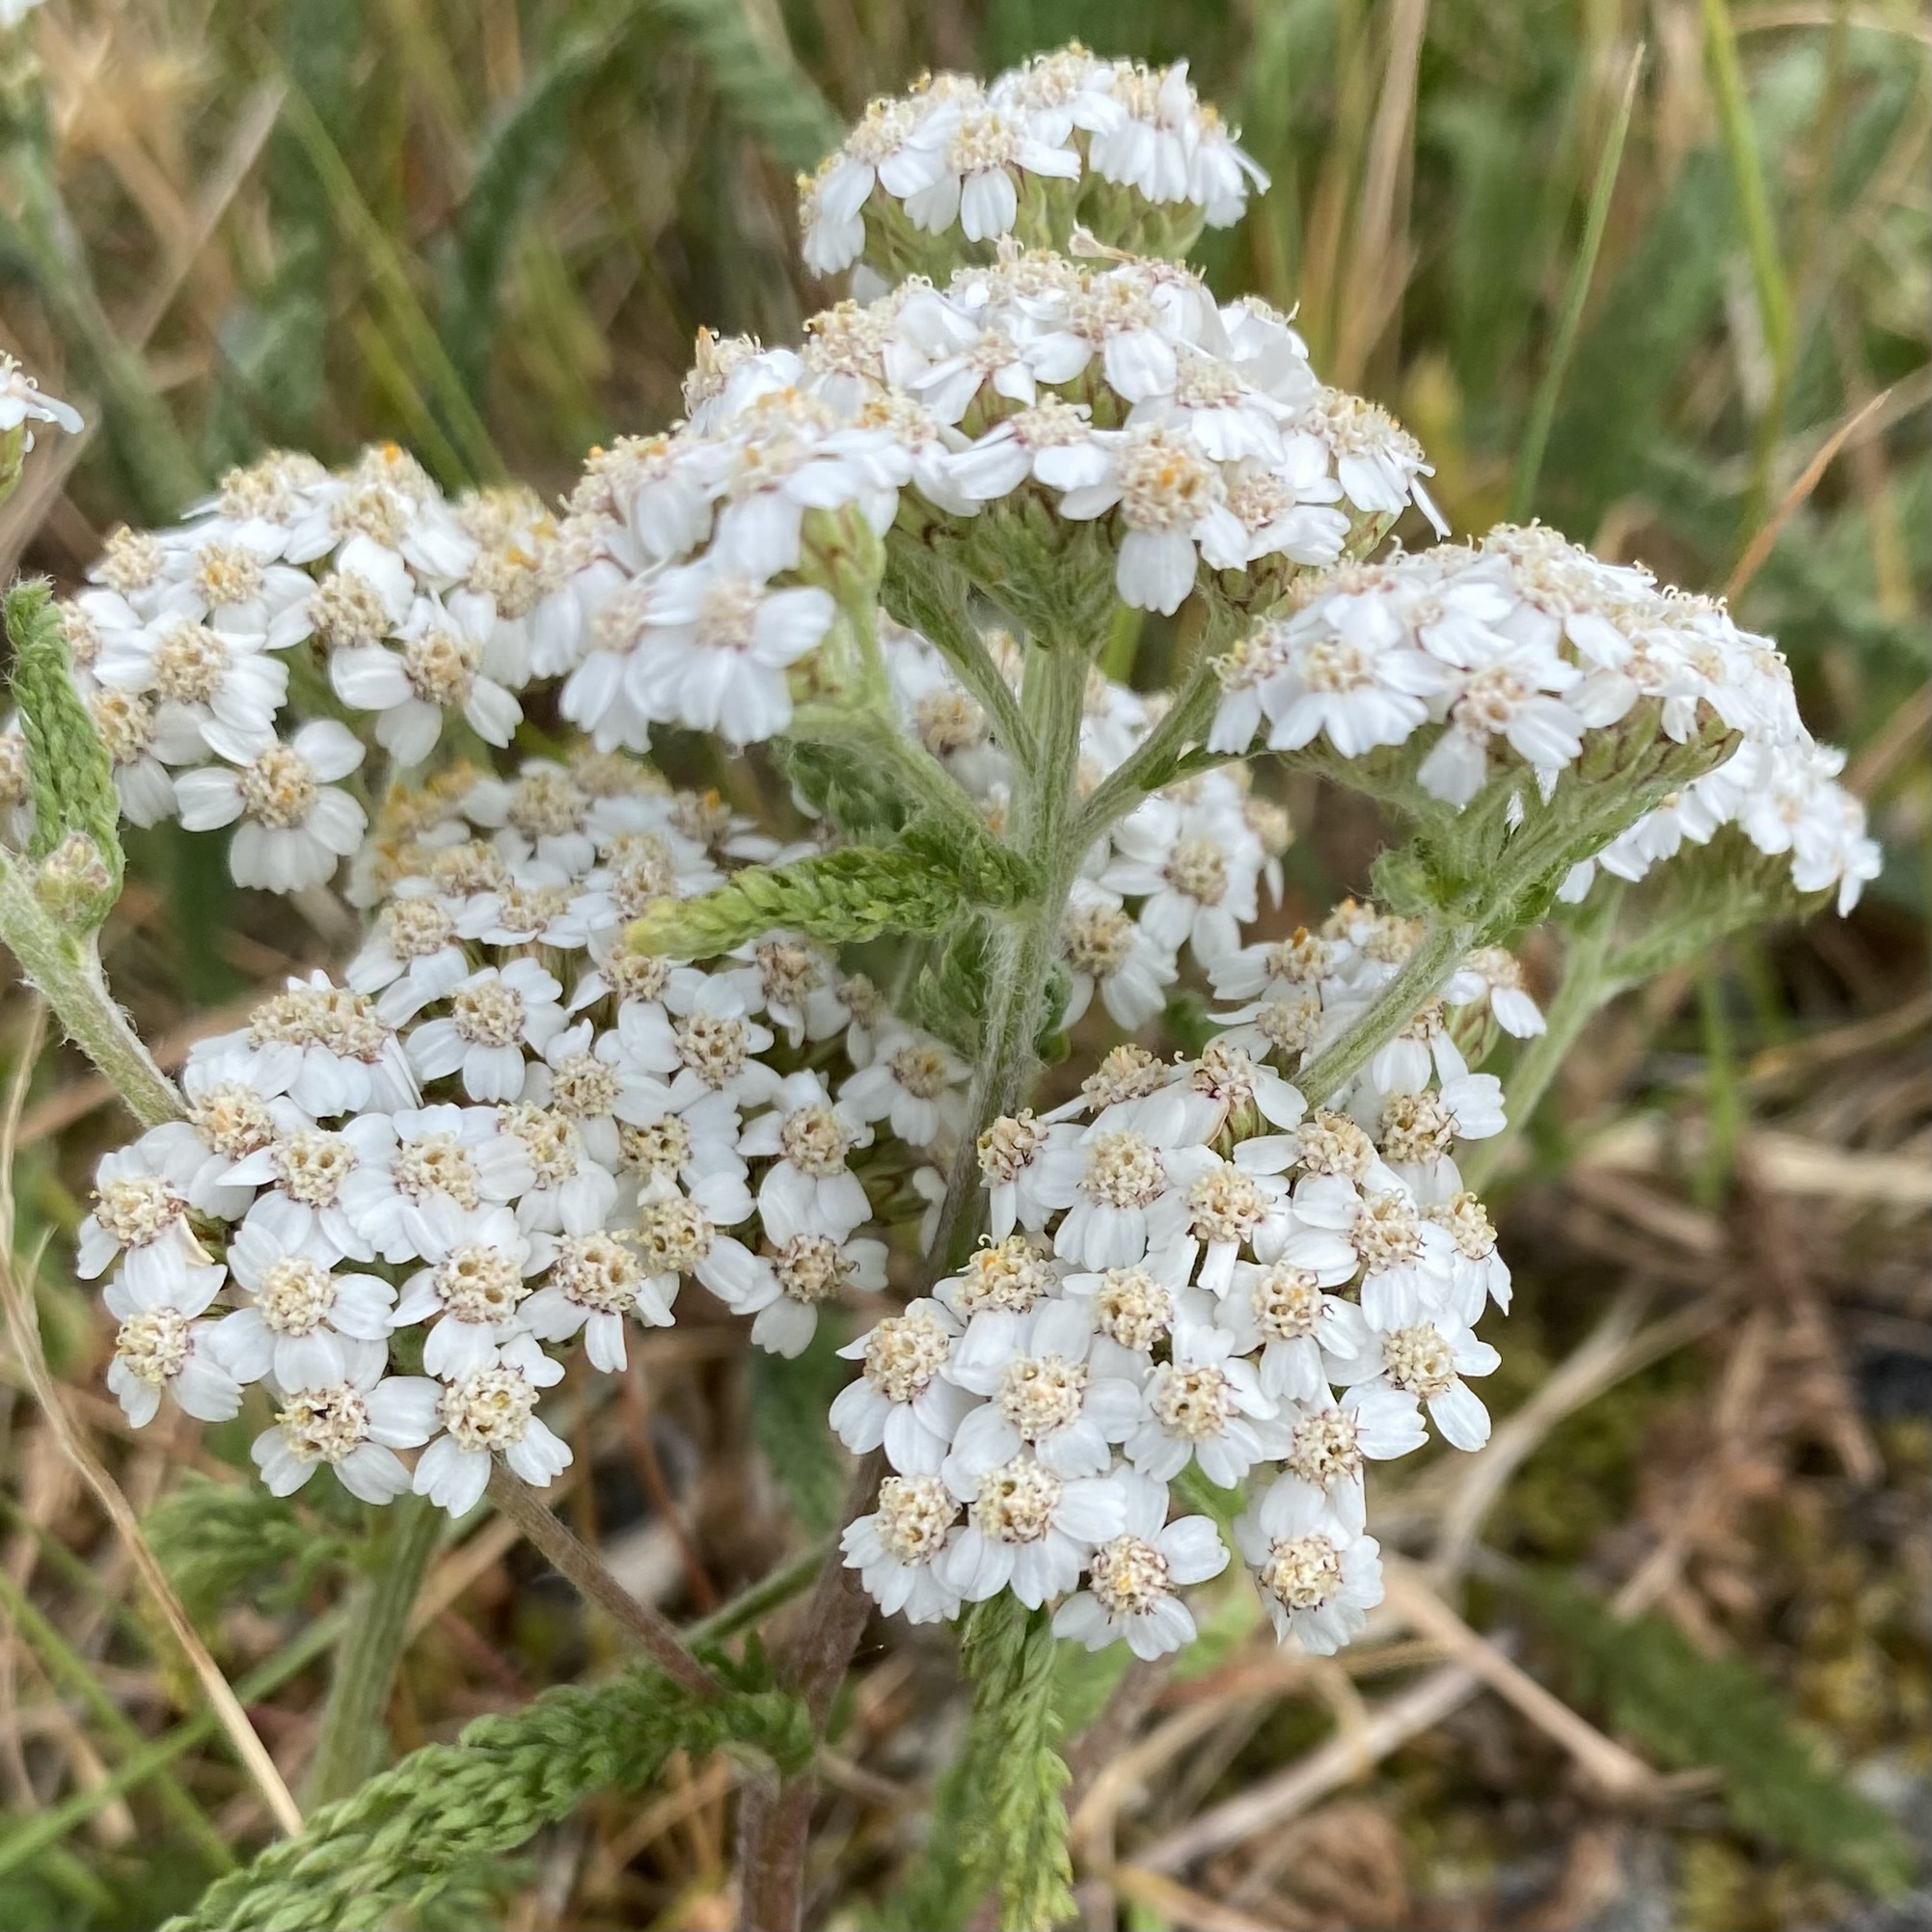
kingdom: Plantae
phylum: Tracheophyta
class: Magnoliopsida
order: Asterales
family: Asteraceae
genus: Achillea
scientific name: Achillea millefolium
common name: Yarrow
